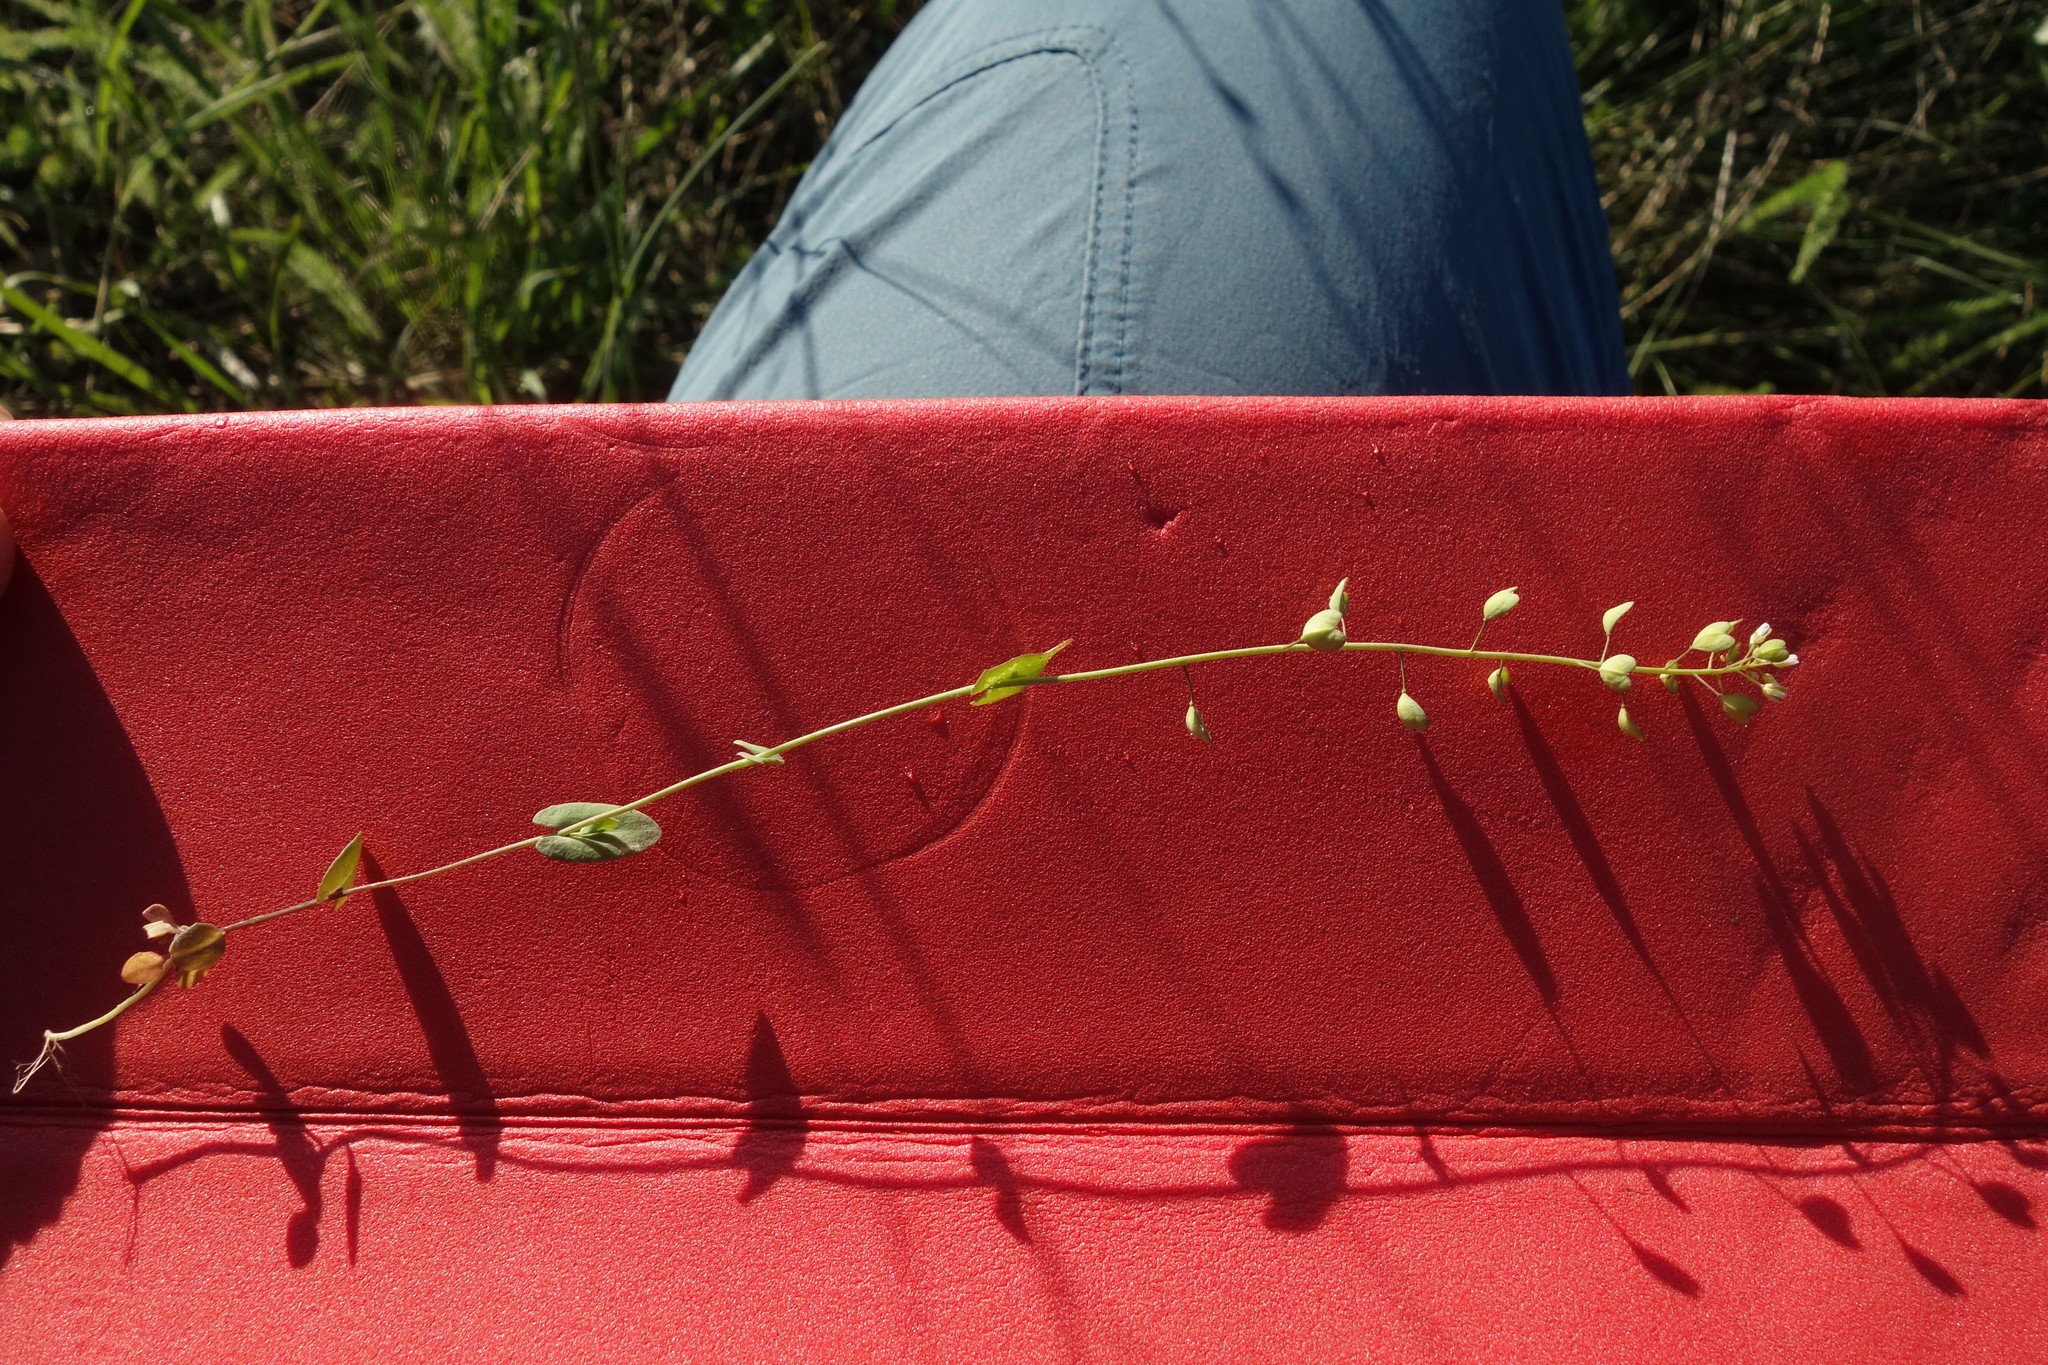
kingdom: Plantae
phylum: Tracheophyta
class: Magnoliopsida
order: Brassicales
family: Brassicaceae
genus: Noccaea
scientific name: Noccaea perfoliata
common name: Perfoliate pennycress
